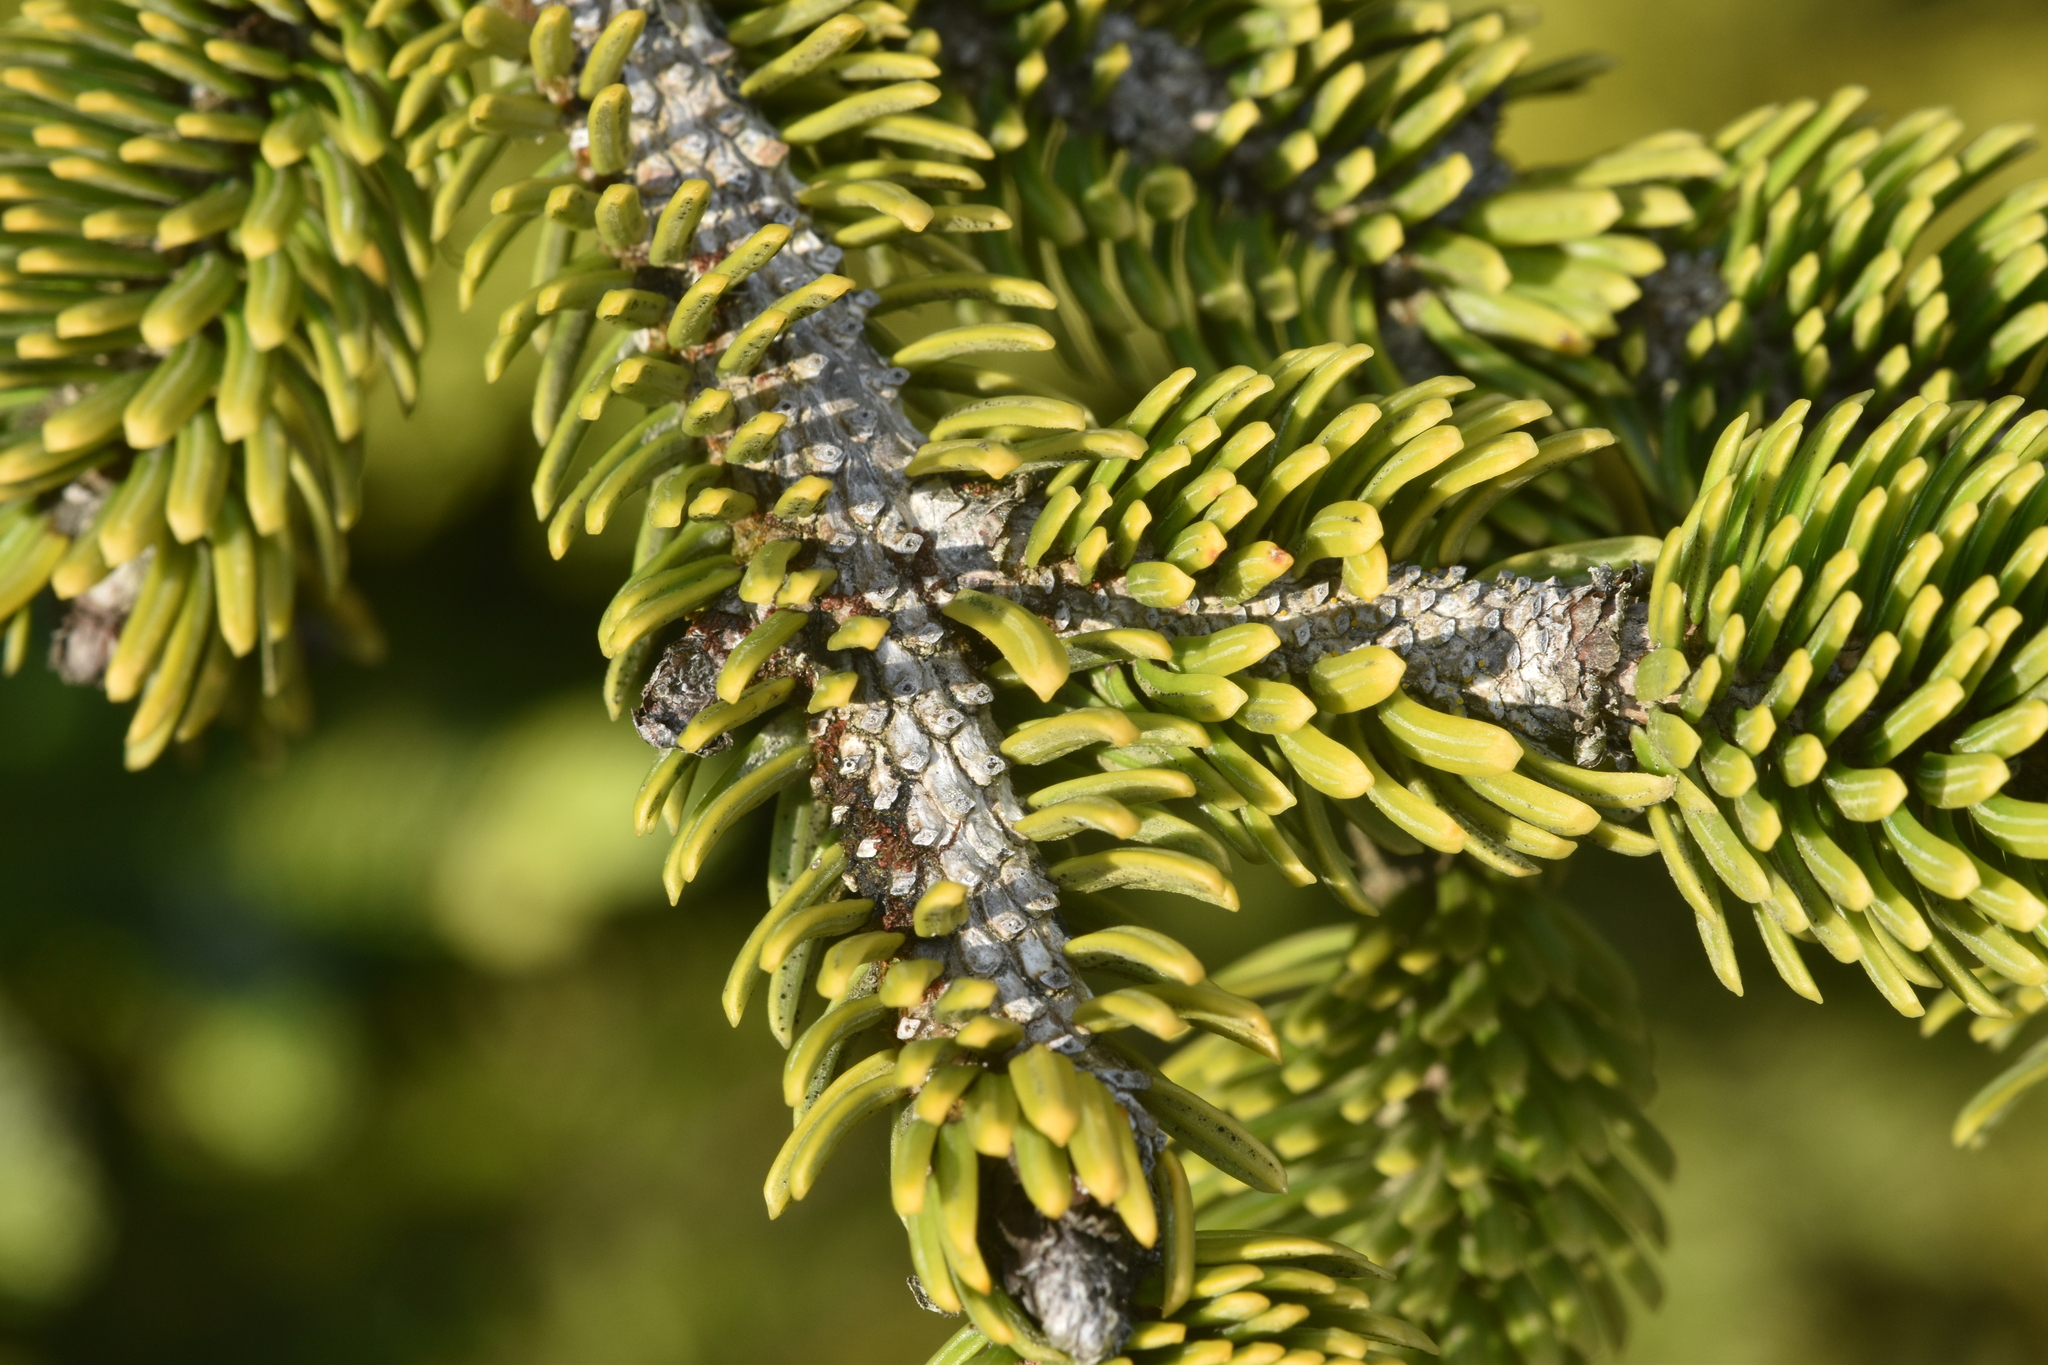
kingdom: Plantae
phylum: Tracheophyta
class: Pinopsida
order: Pinales
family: Pinaceae
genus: Picea
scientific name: Picea sitchensis
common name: Sitka spruce
